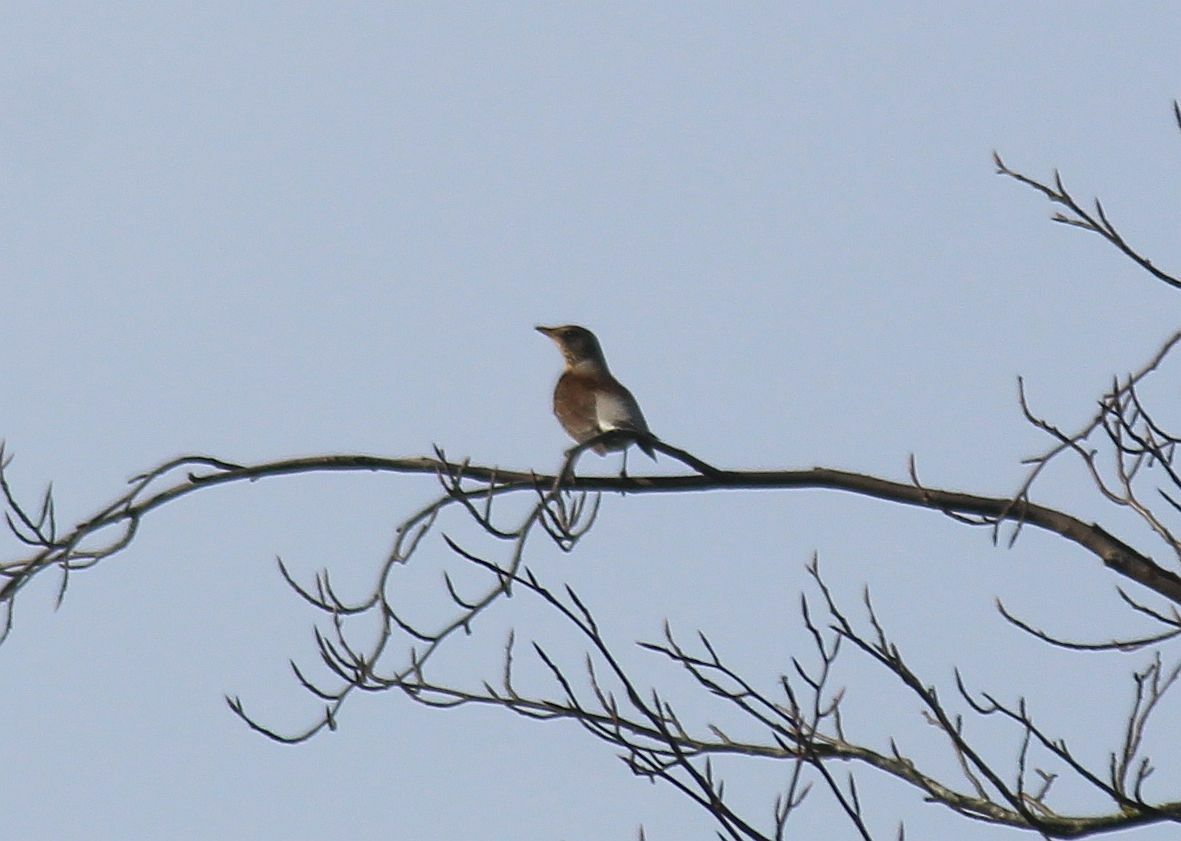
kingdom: Animalia
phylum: Chordata
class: Aves
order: Passeriformes
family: Turdidae
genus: Turdus
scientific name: Turdus pilaris
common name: Fieldfare
